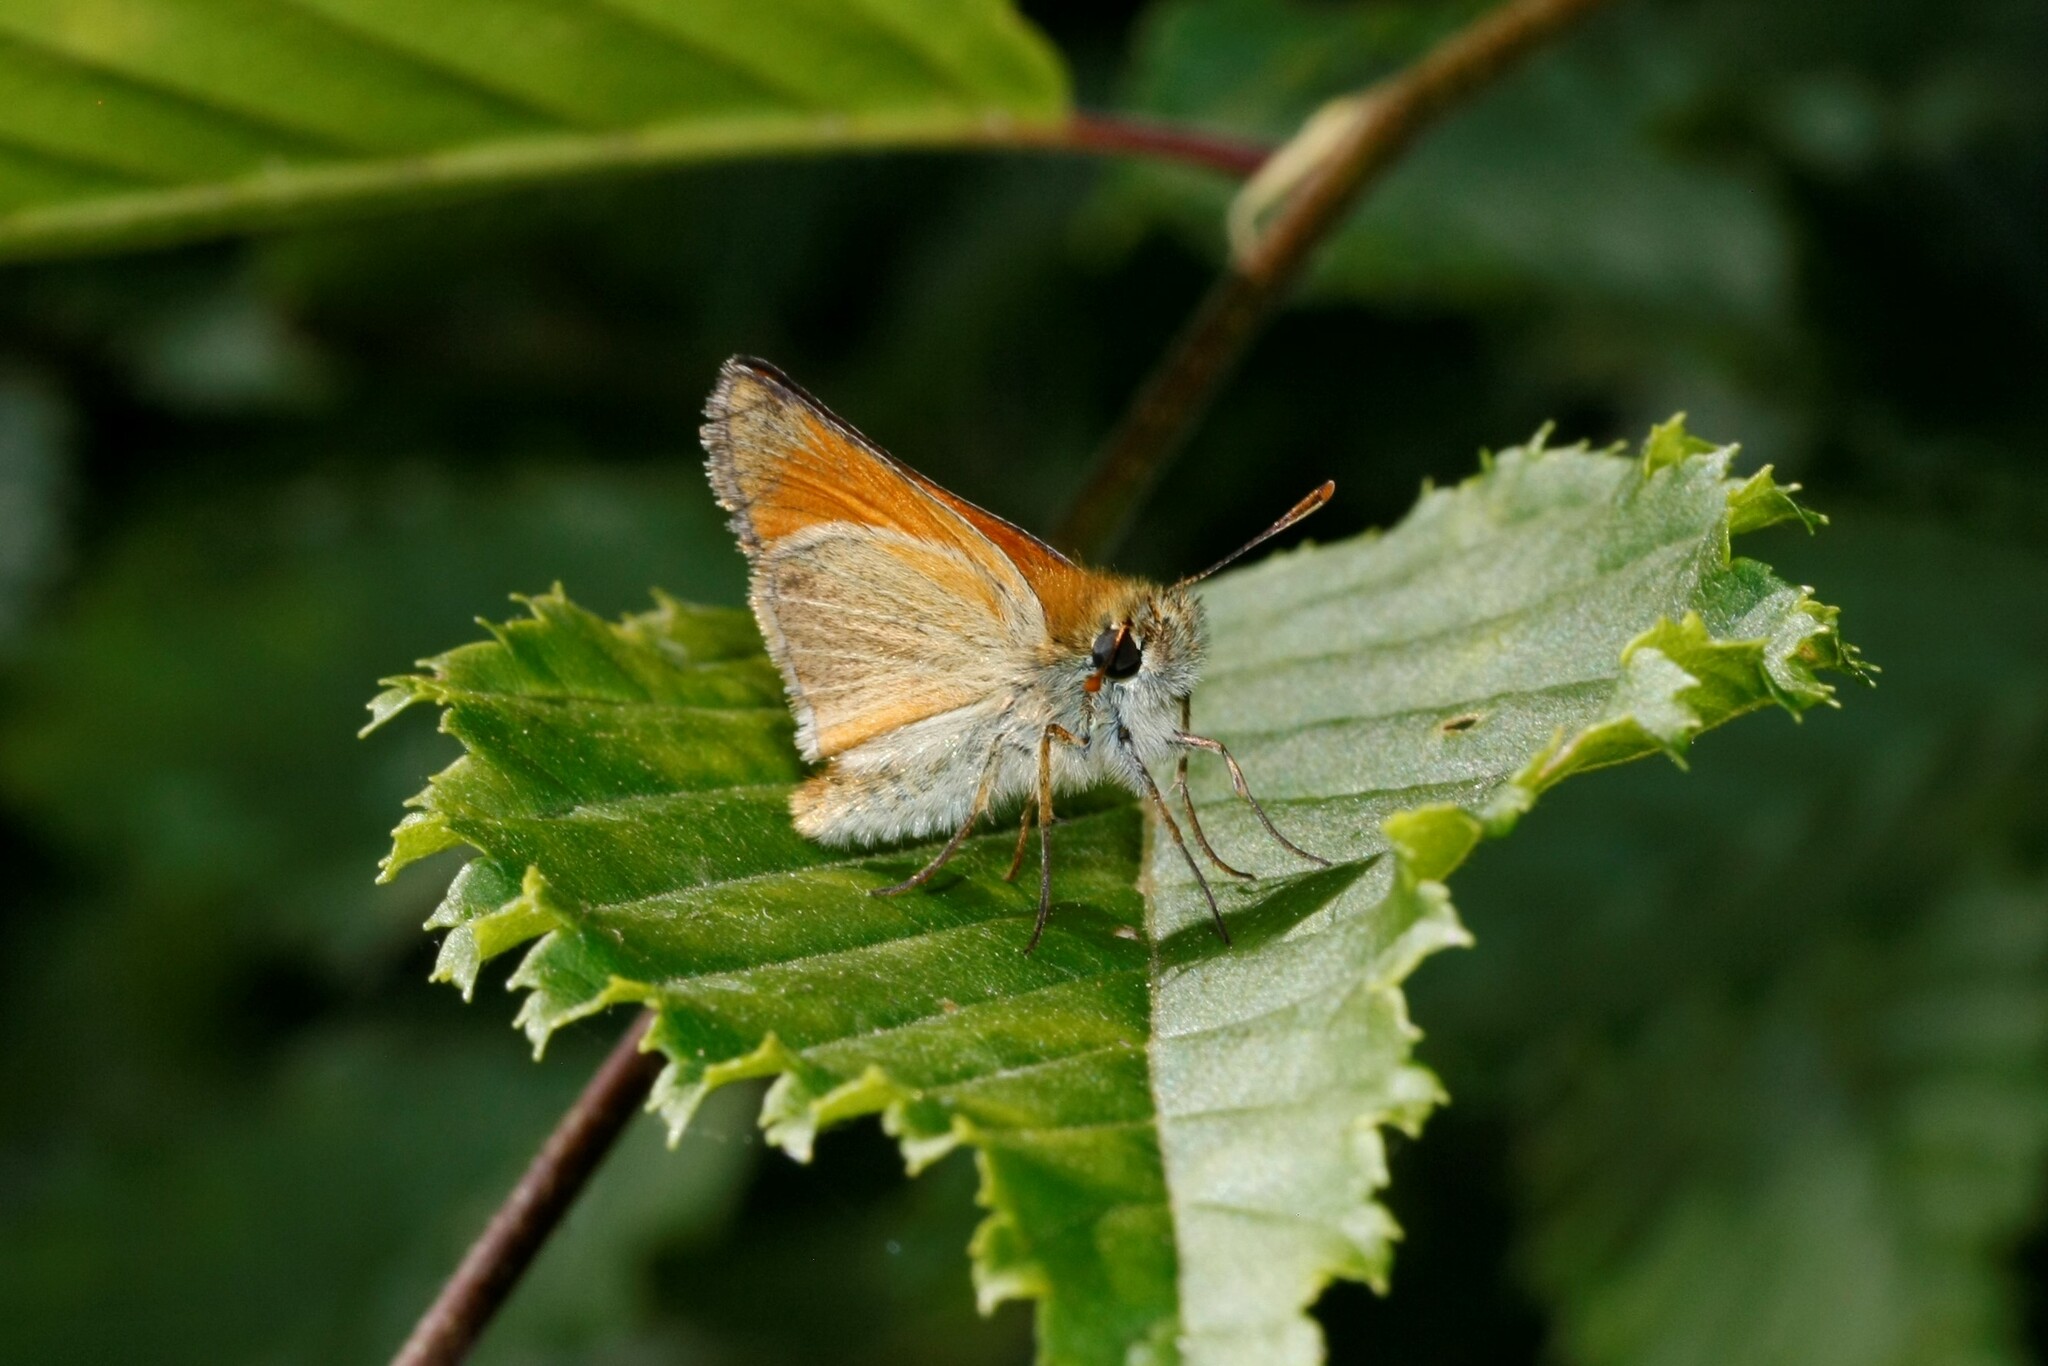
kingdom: Animalia
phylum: Arthropoda
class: Insecta
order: Lepidoptera
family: Hesperiidae
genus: Thymelicus
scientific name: Thymelicus sylvestris
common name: Small skipper
